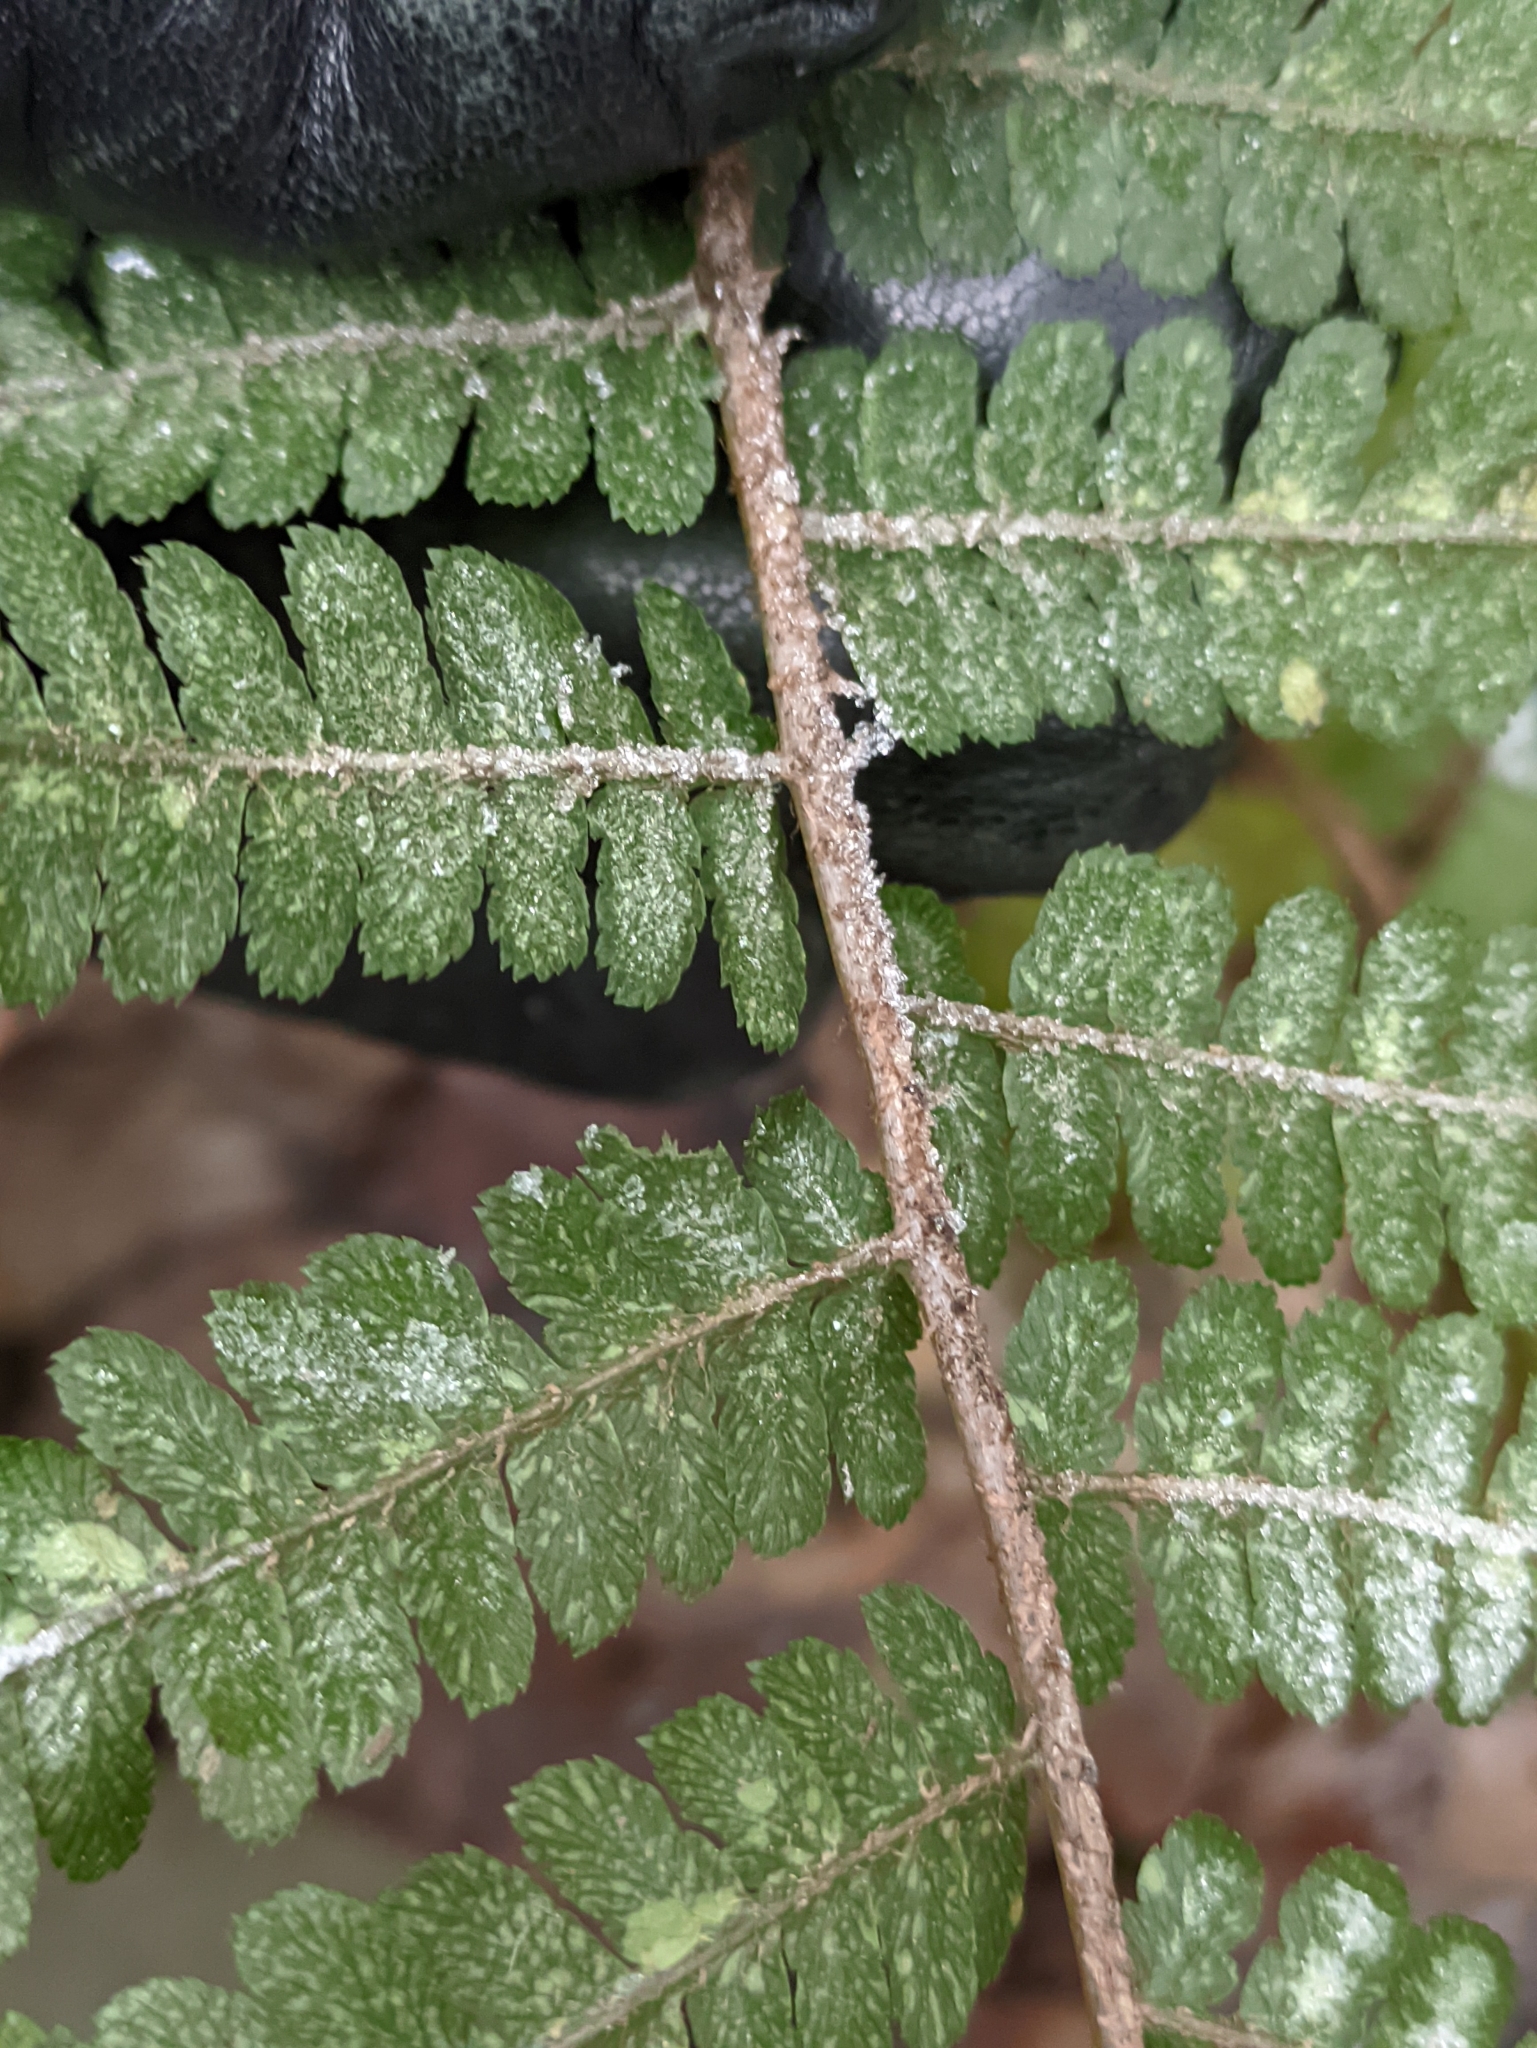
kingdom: Plantae
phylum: Tracheophyta
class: Polypodiopsida
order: Polypodiales
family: Dryopteridaceae
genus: Dryopteris
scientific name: Dryopteris filix-mas
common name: Male fern
